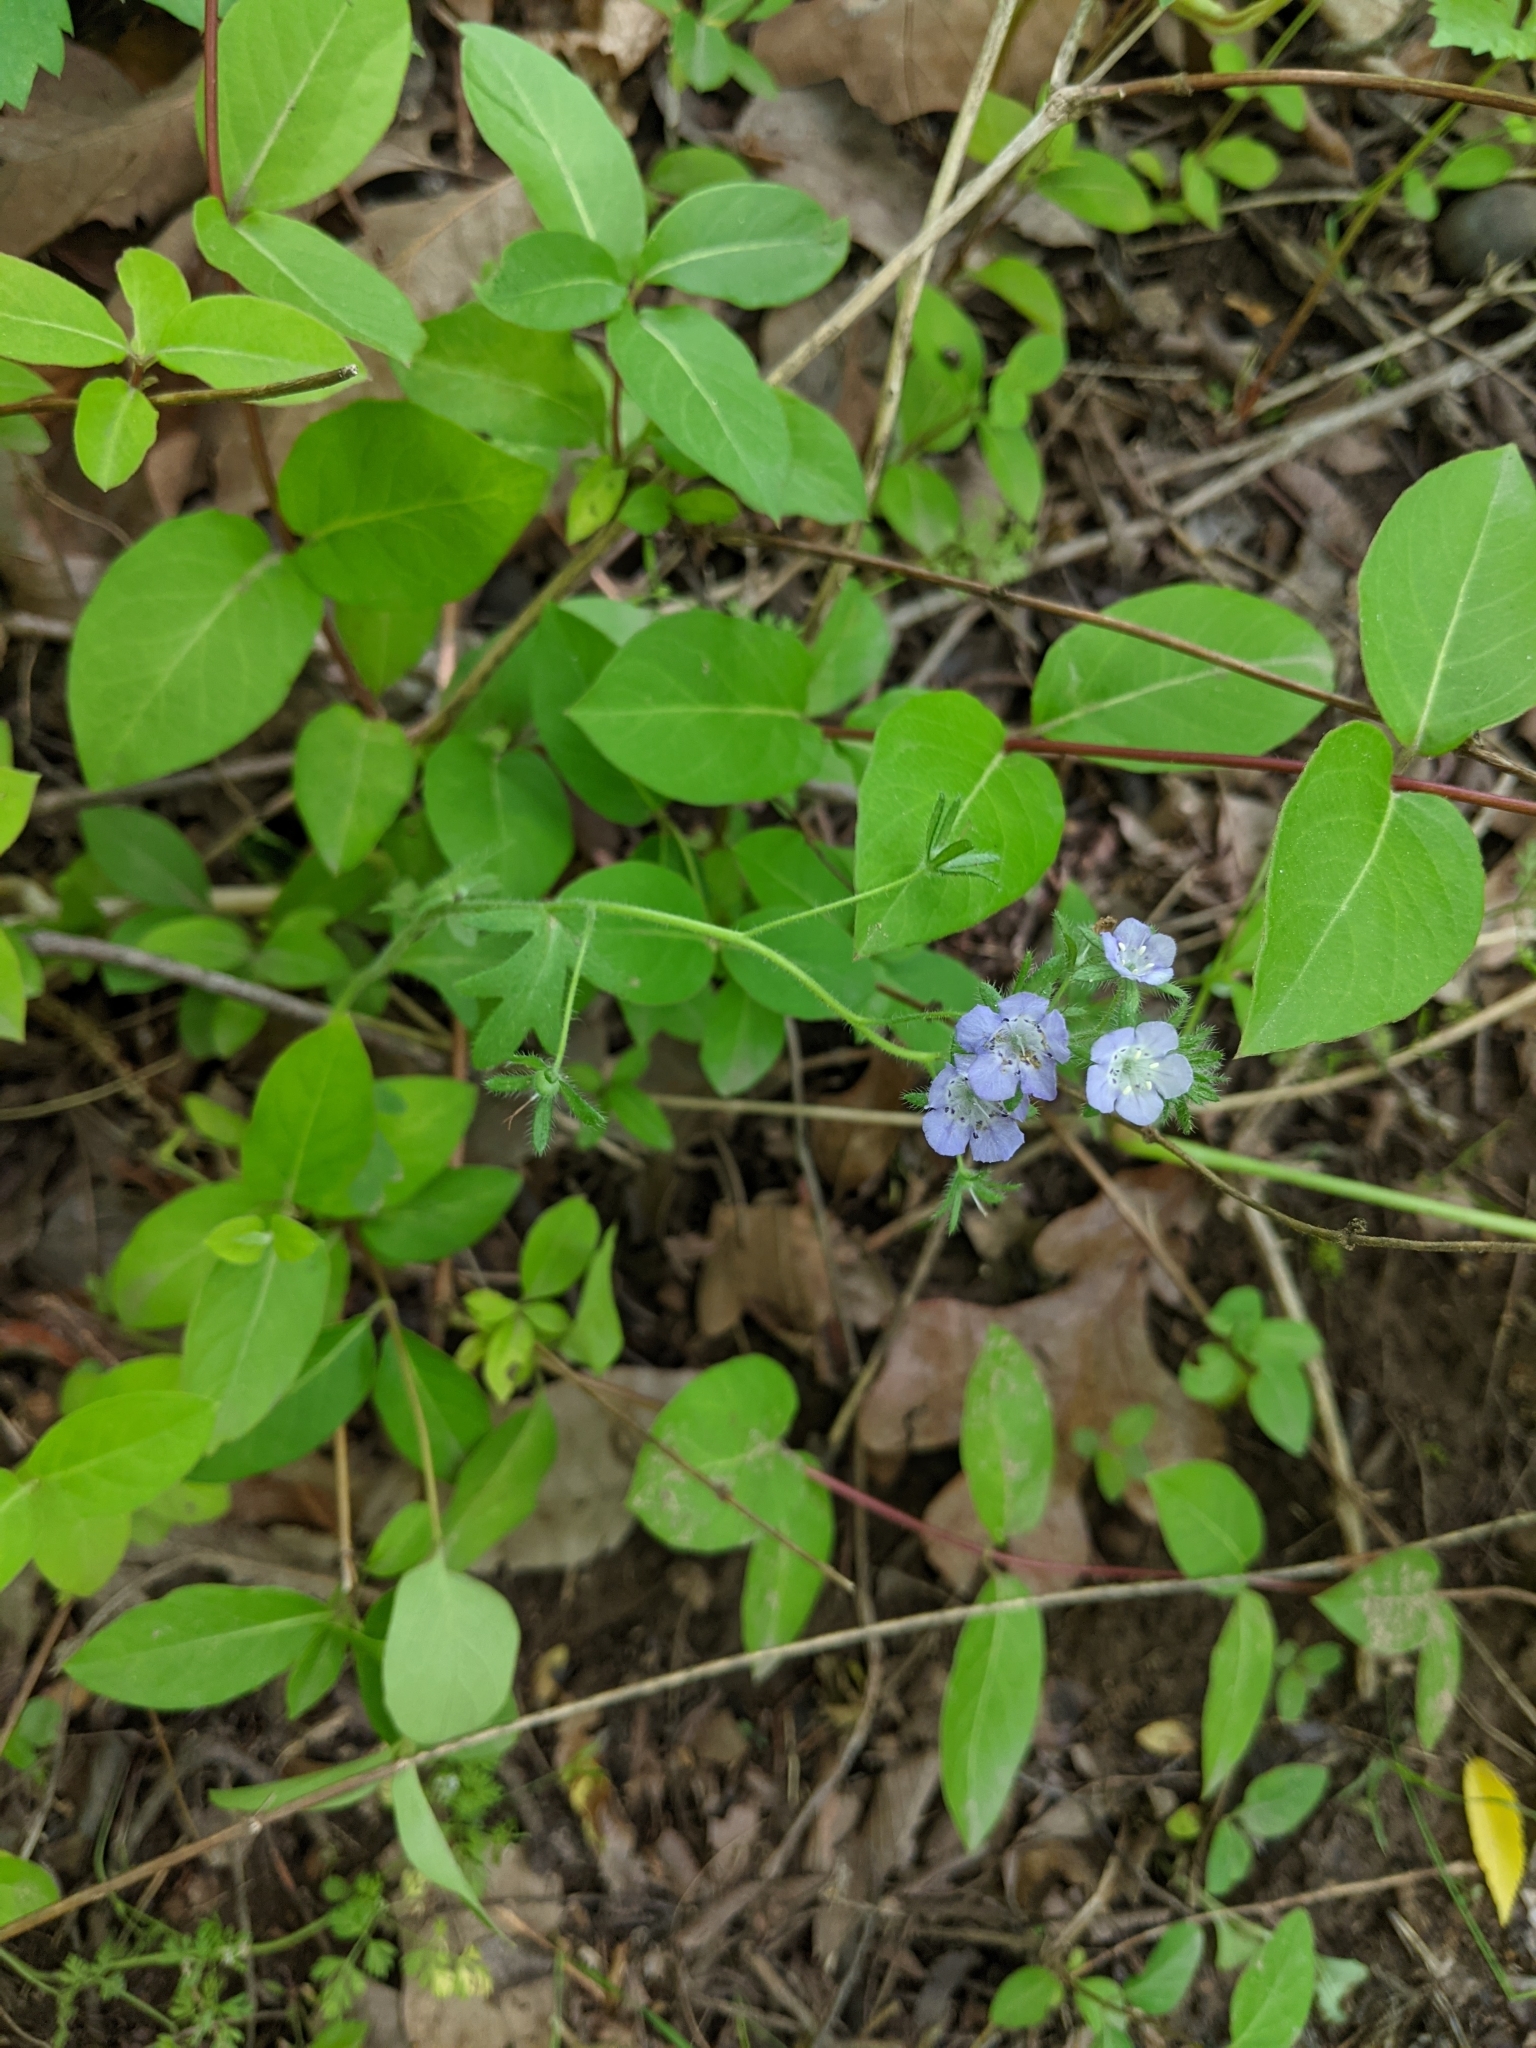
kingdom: Plantae
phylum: Tracheophyta
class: Magnoliopsida
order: Boraginales
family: Hydrophyllaceae
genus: Phacelia
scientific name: Phacelia hirsuta
